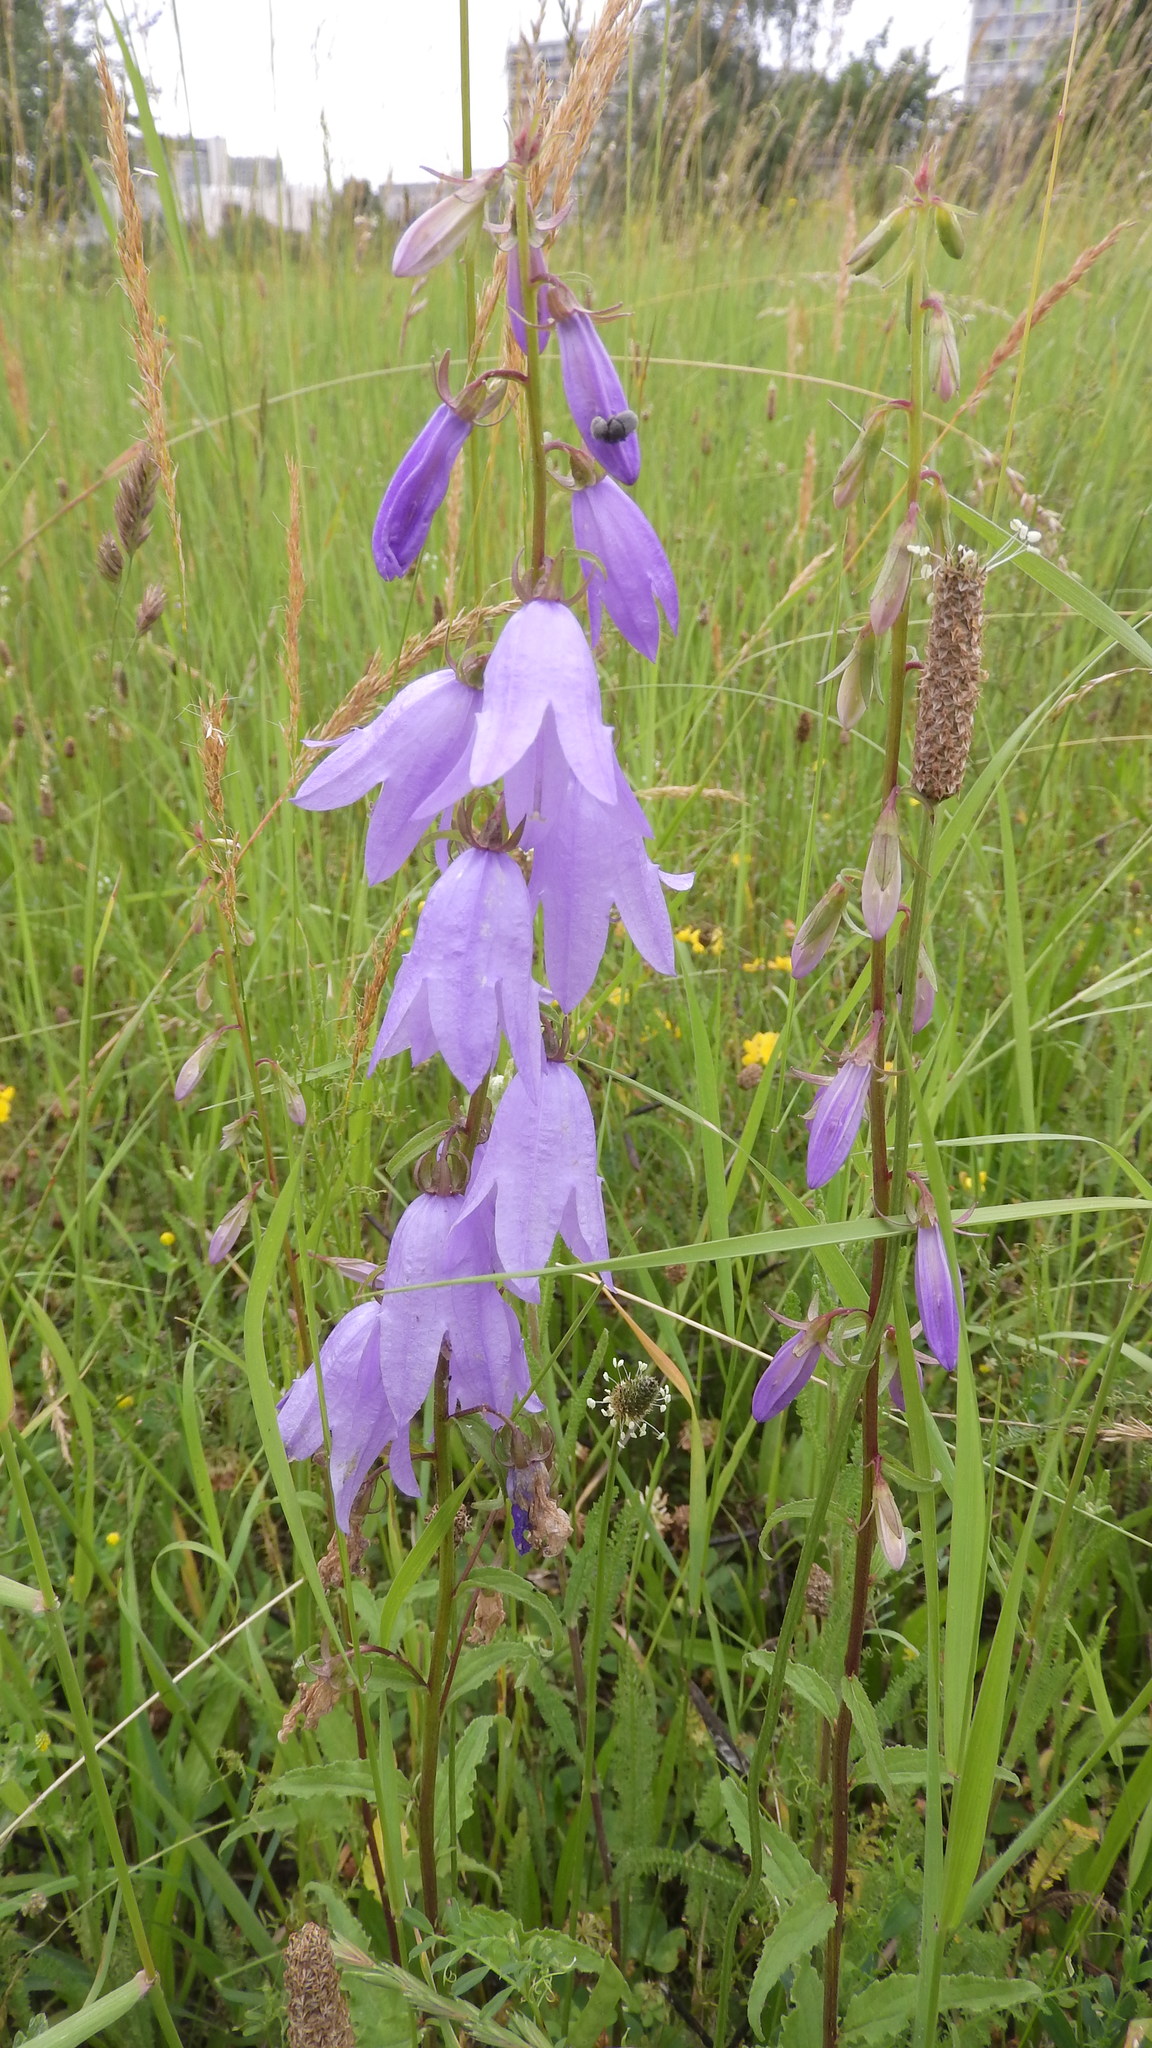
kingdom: Plantae
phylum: Tracheophyta
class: Magnoliopsida
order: Asterales
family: Campanulaceae
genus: Campanula
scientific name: Campanula rapunculoides
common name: Creeping bellflower
